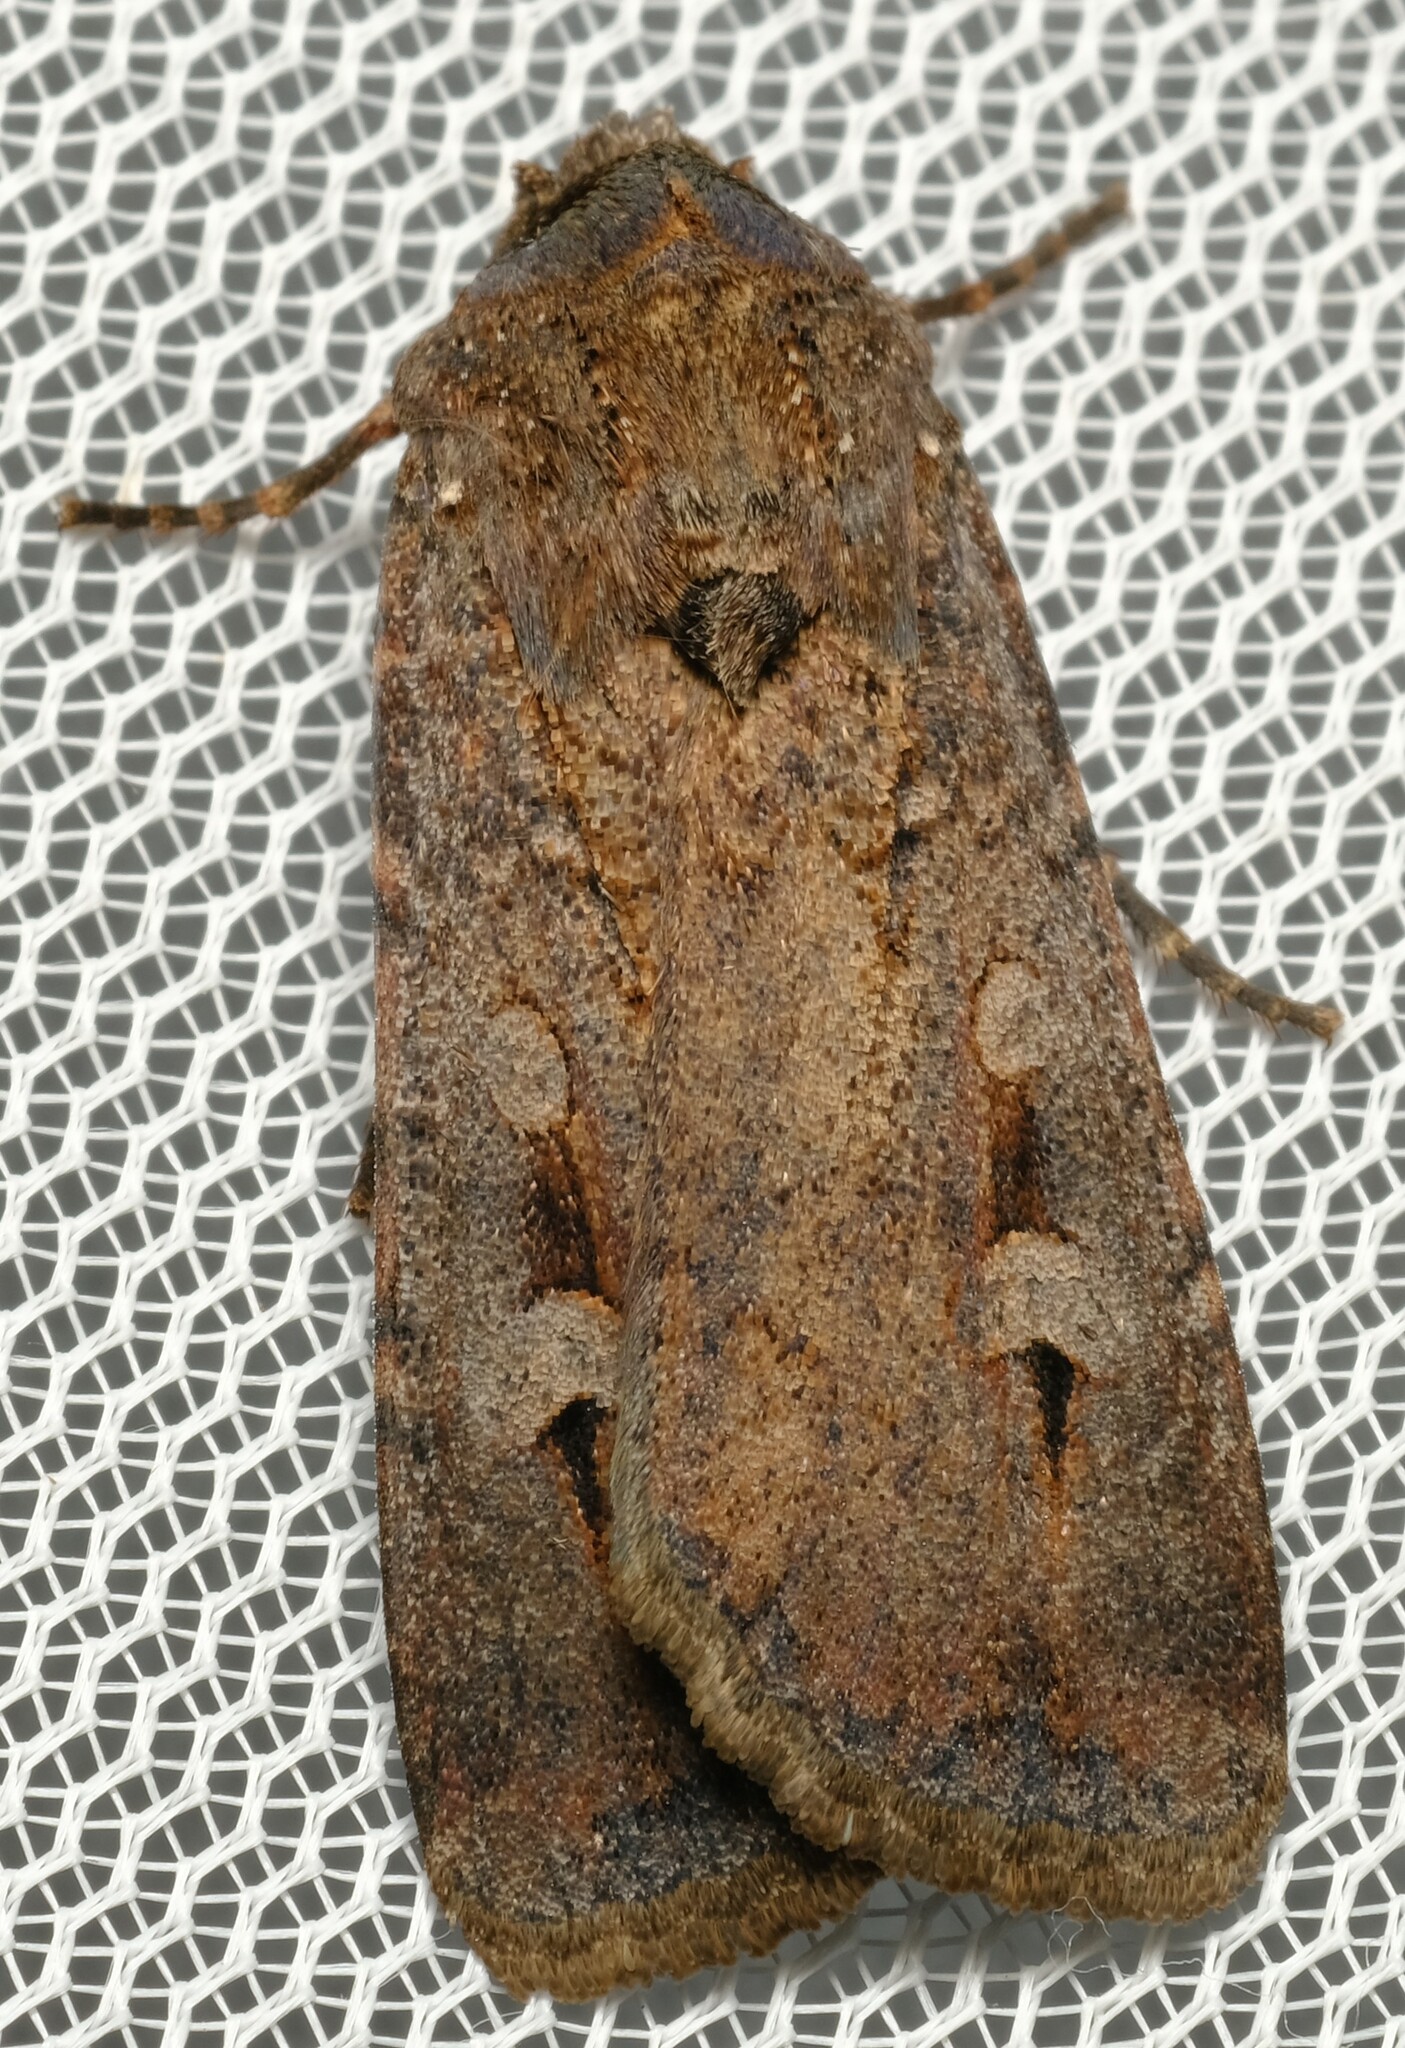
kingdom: Animalia
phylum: Arthropoda
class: Insecta
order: Lepidoptera
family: Noctuidae
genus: Agrotis
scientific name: Agrotis infusa
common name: Bogong moth
